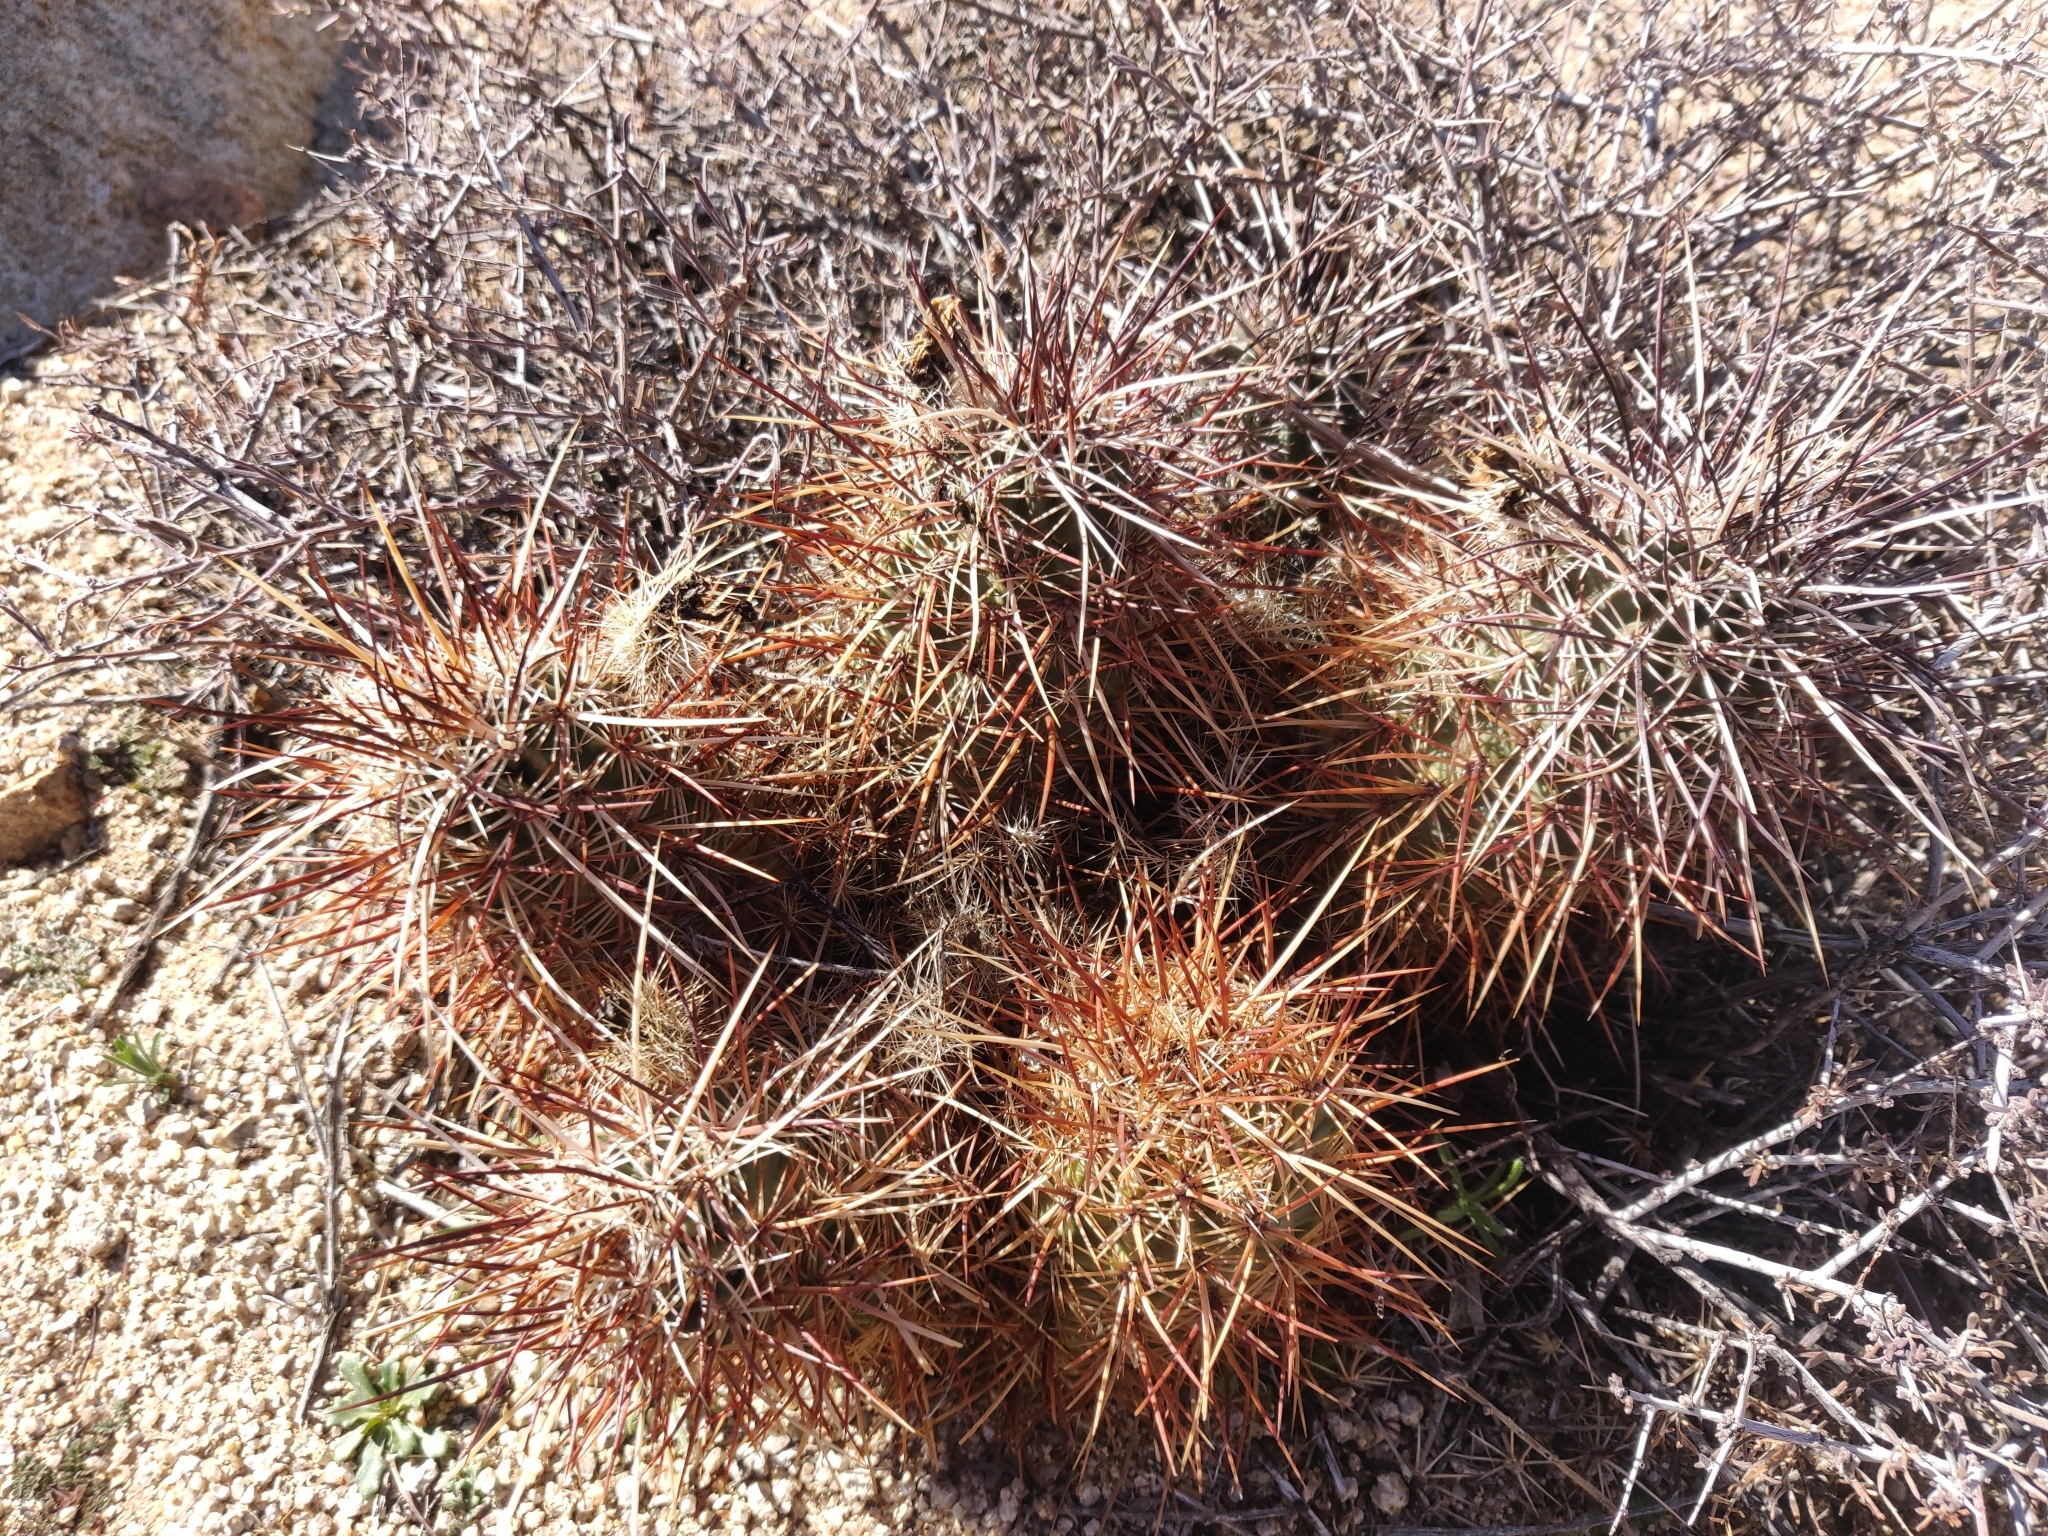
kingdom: Plantae
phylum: Tracheophyta
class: Magnoliopsida
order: Caryophyllales
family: Cactaceae
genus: Echinocereus
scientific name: Echinocereus engelmannii
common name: Engelmann's hedgehog cactus
